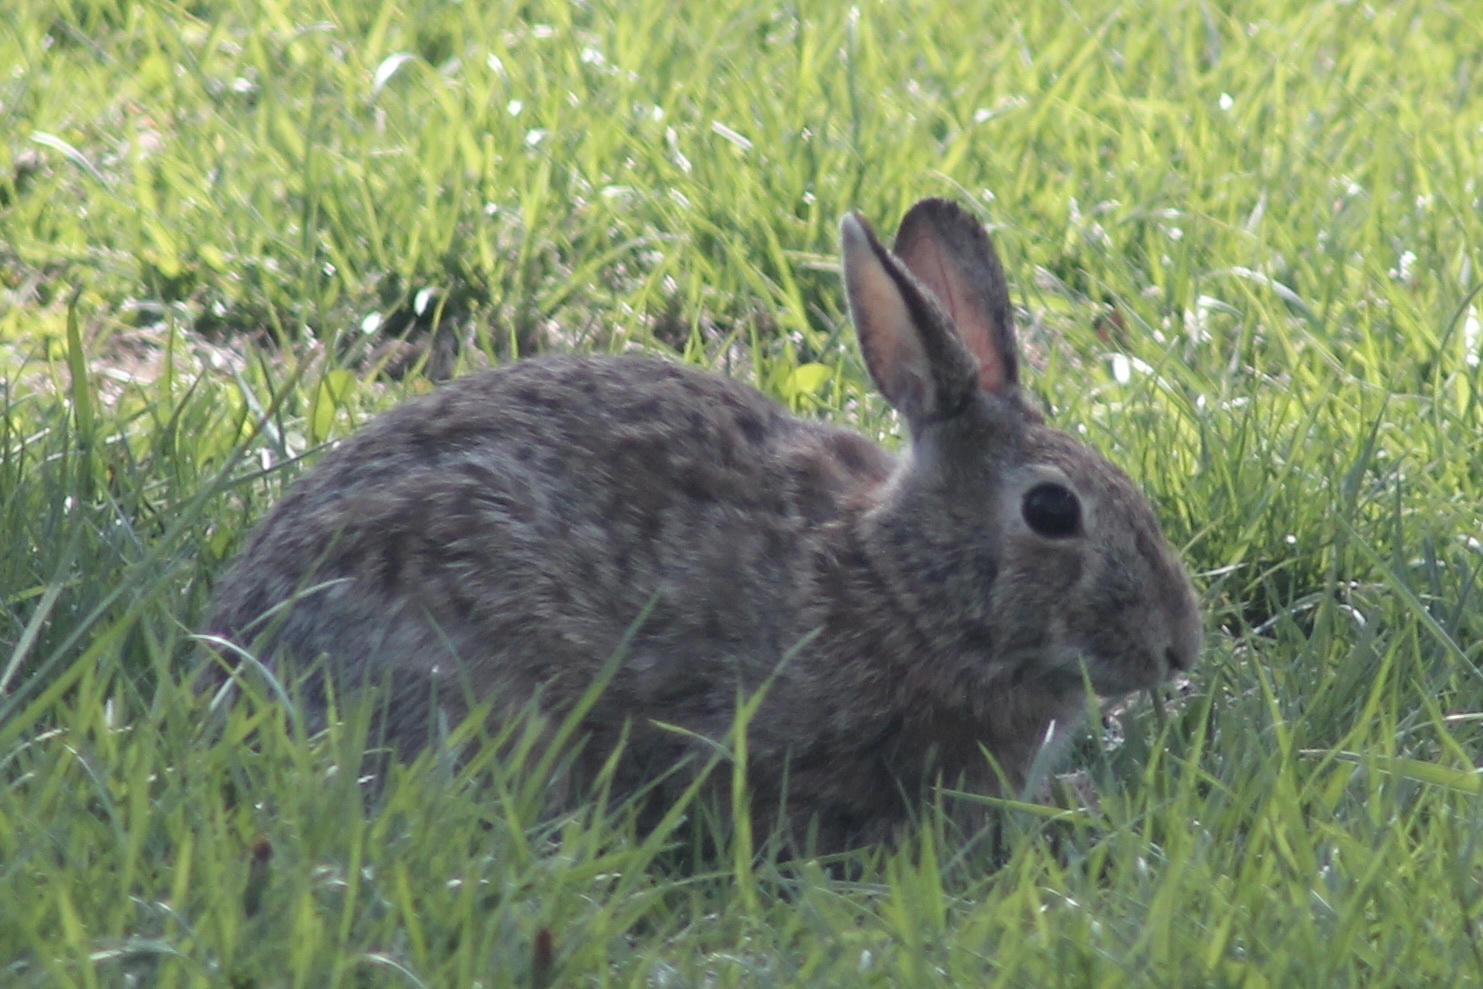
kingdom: Animalia
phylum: Chordata
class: Mammalia
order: Lagomorpha
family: Leporidae
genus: Sylvilagus
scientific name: Sylvilagus floridanus
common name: Eastern cottontail
